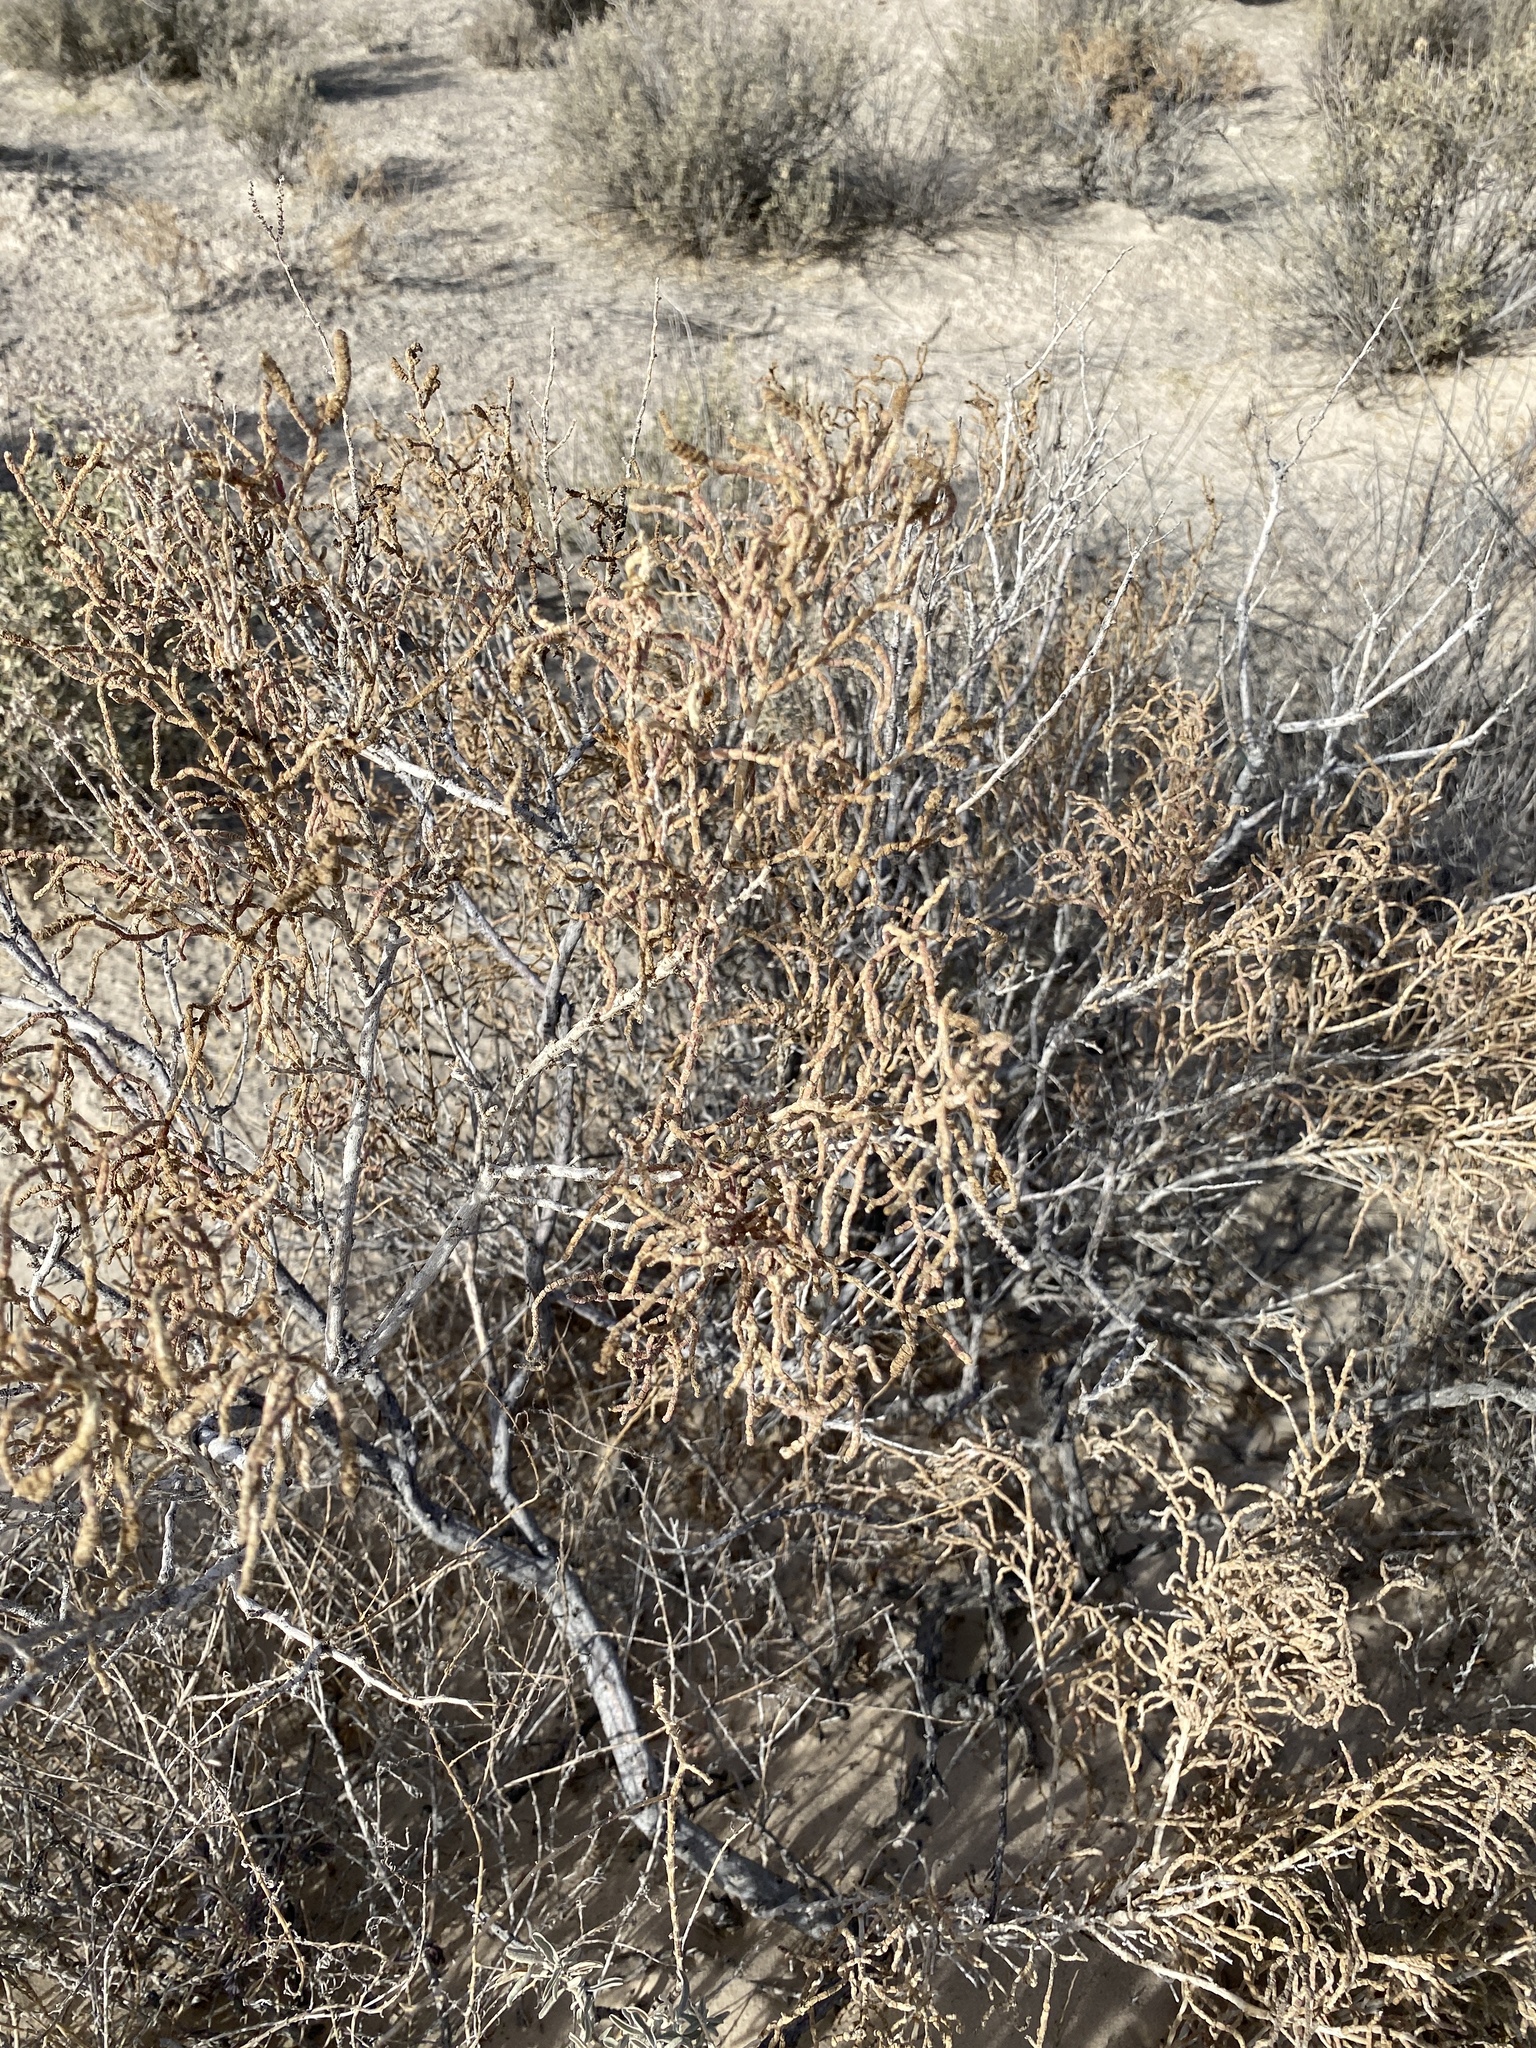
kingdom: Plantae
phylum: Tracheophyta
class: Magnoliopsida
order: Caryophyllales
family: Amaranthaceae
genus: Allenrolfea
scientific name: Allenrolfea occidentalis
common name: Iodine-bush
